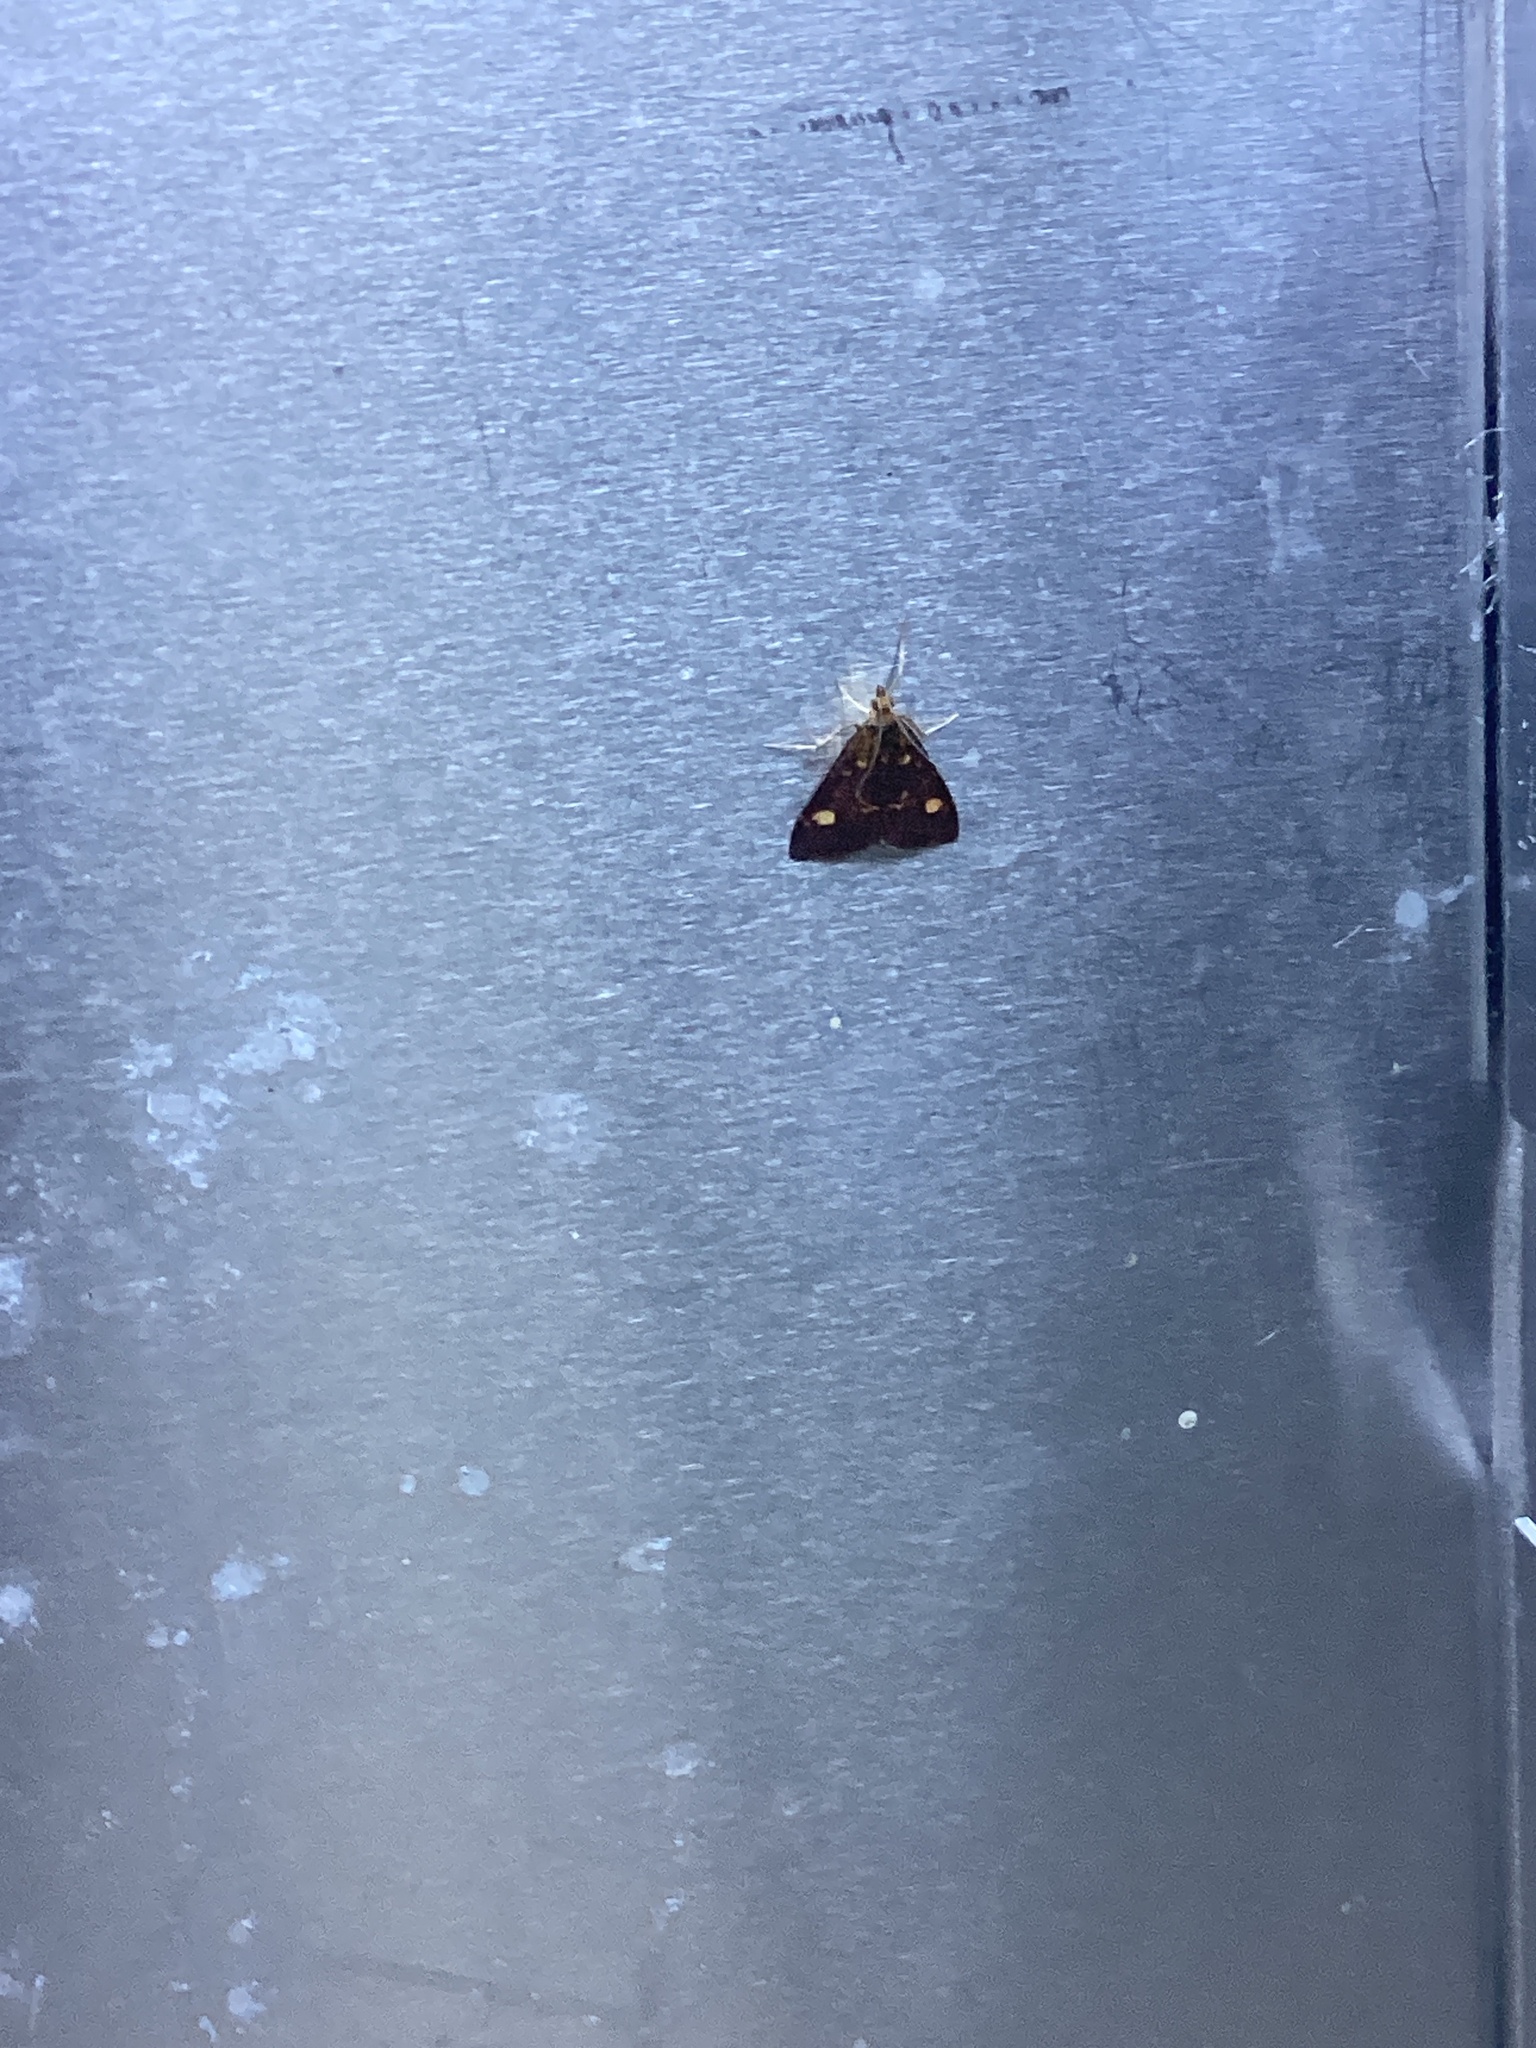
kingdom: Animalia
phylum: Arthropoda
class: Insecta
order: Lepidoptera
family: Crambidae
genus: Pyrausta
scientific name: Pyrausta aurata
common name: Small purple & gold
